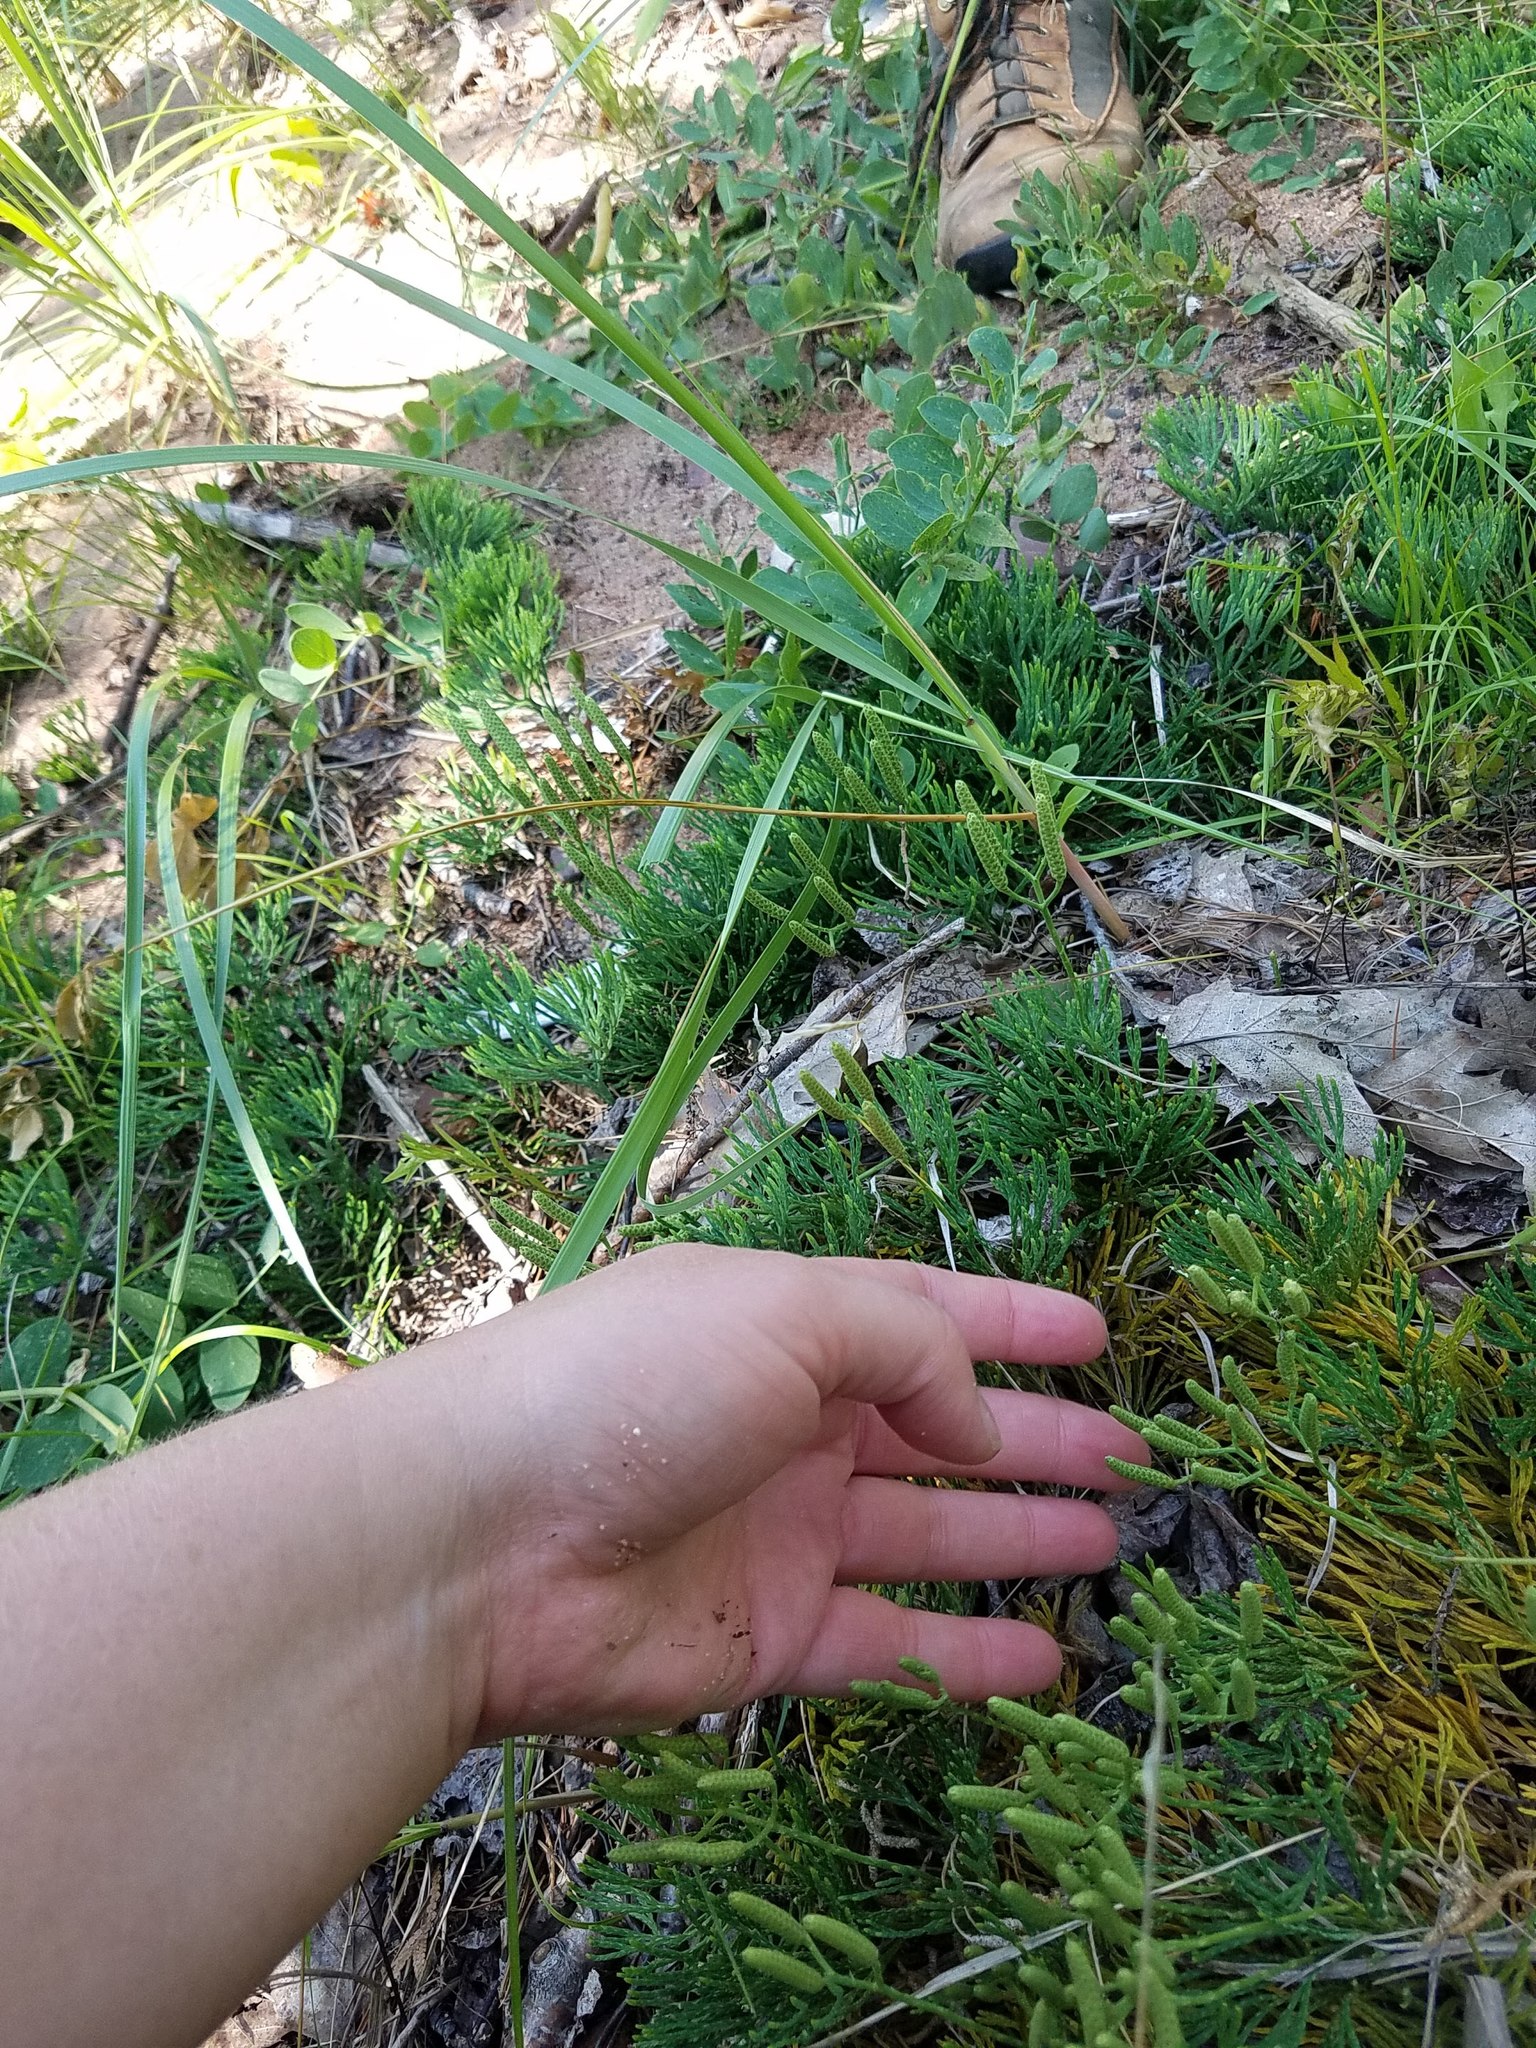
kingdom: Plantae
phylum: Tracheophyta
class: Lycopodiopsida
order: Lycopodiales
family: Lycopodiaceae
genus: Diphasiastrum
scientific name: Diphasiastrum tristachyum
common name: Blue ground-cedar
